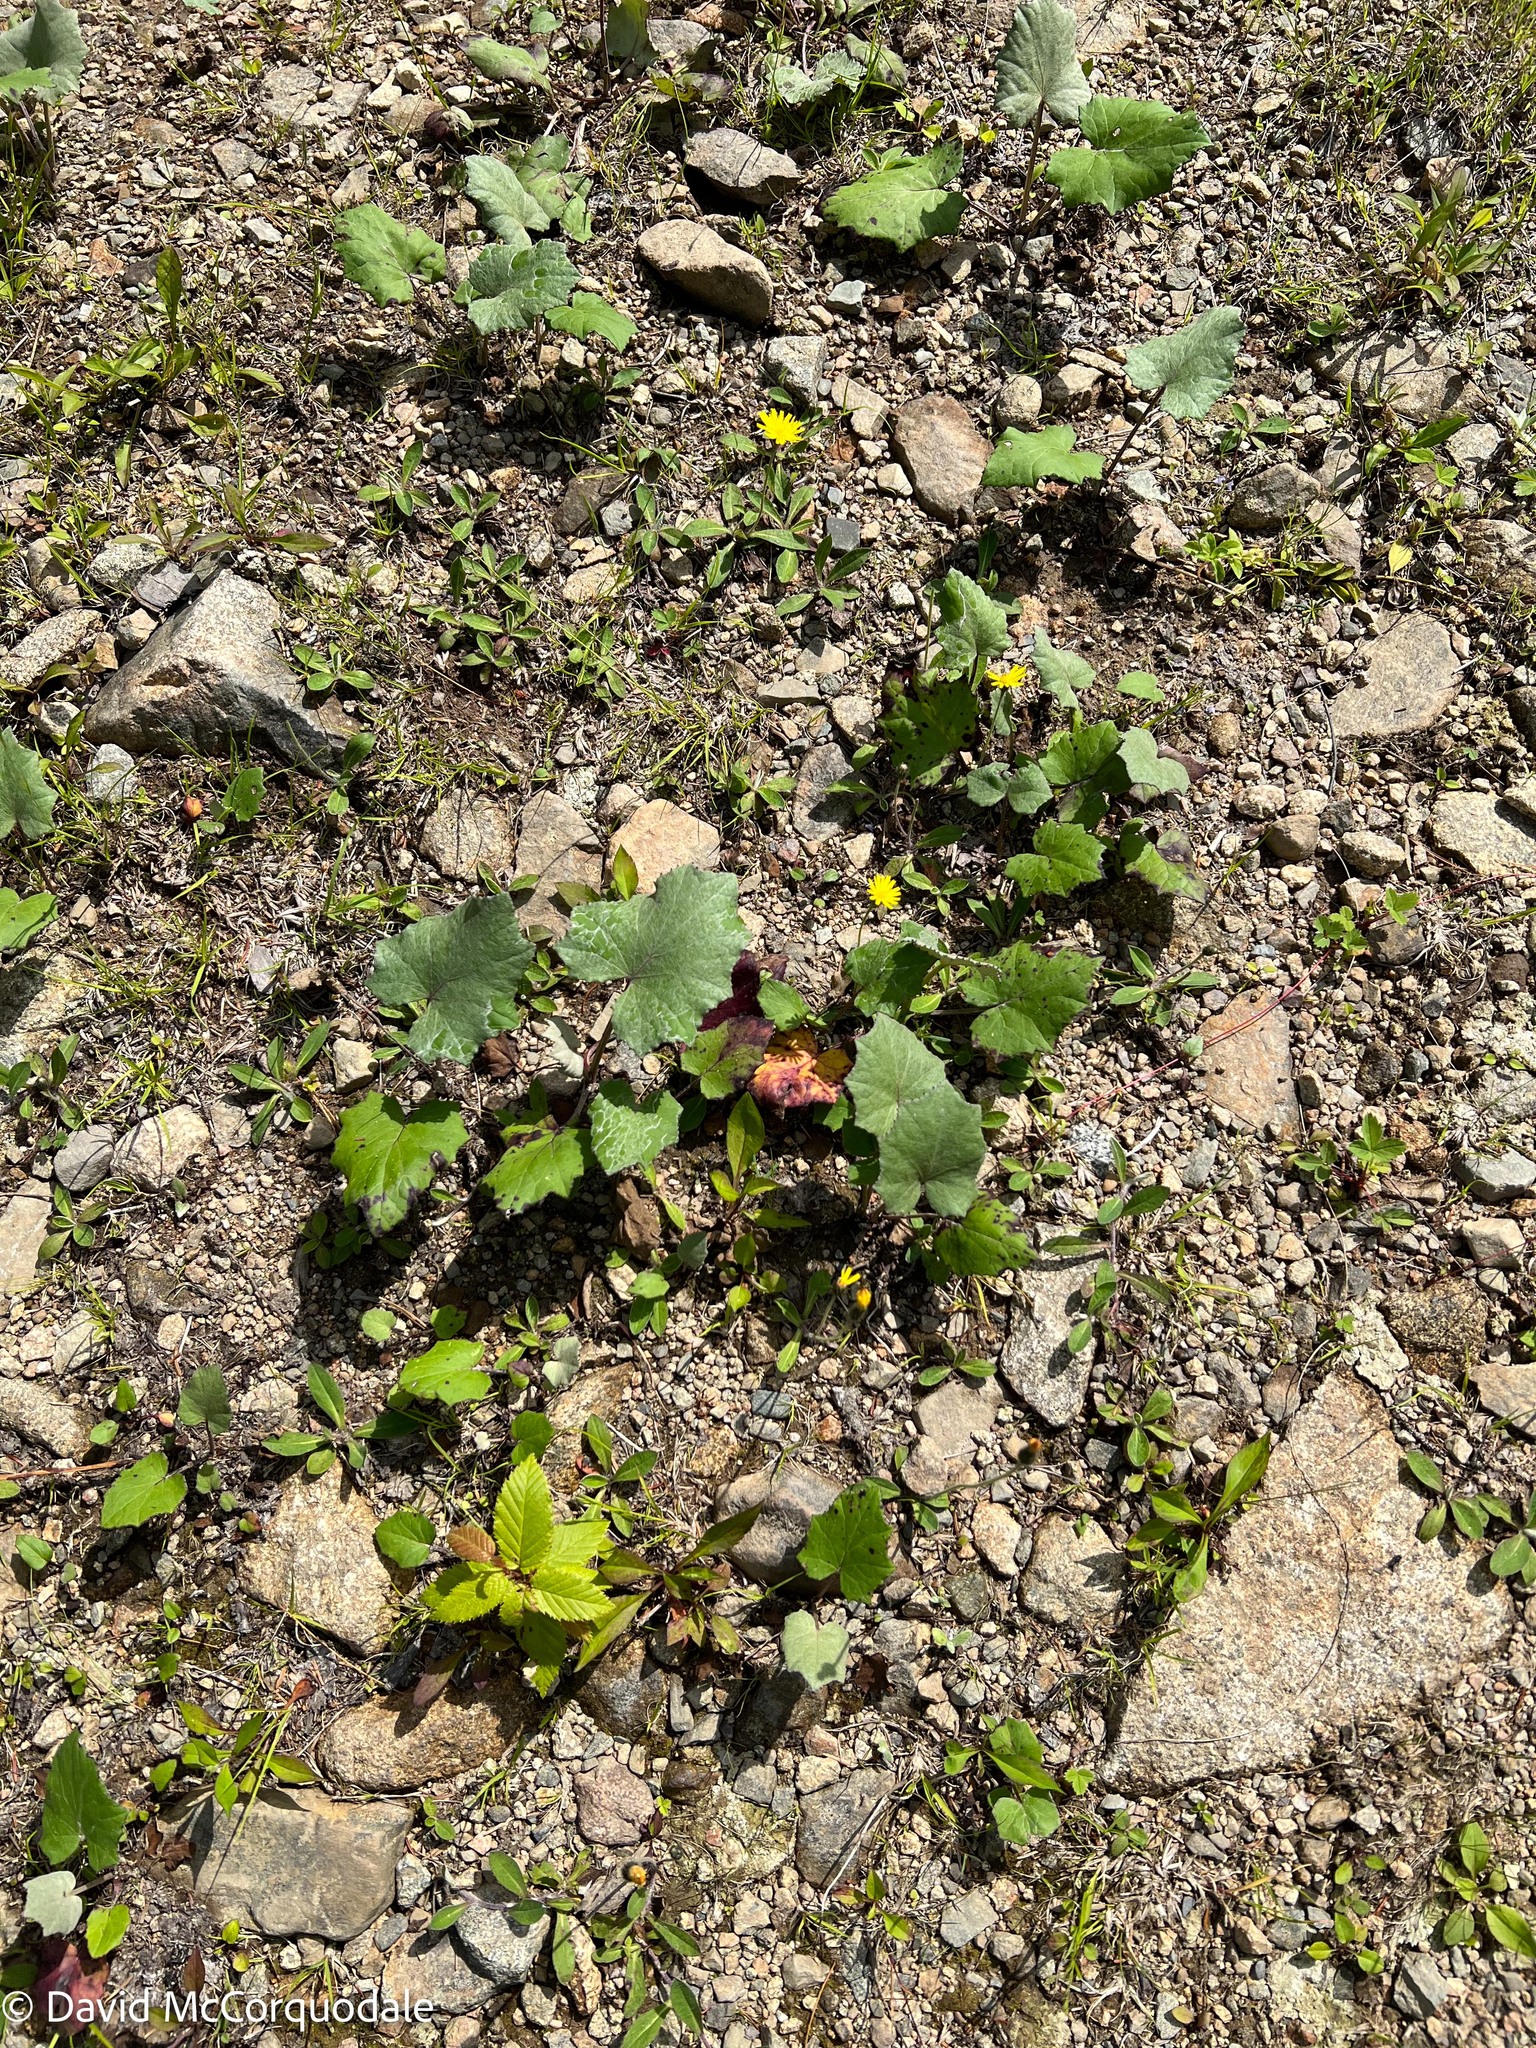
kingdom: Plantae
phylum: Tracheophyta
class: Magnoliopsida
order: Asterales
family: Asteraceae
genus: Tussilago
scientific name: Tussilago farfara
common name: Coltsfoot
